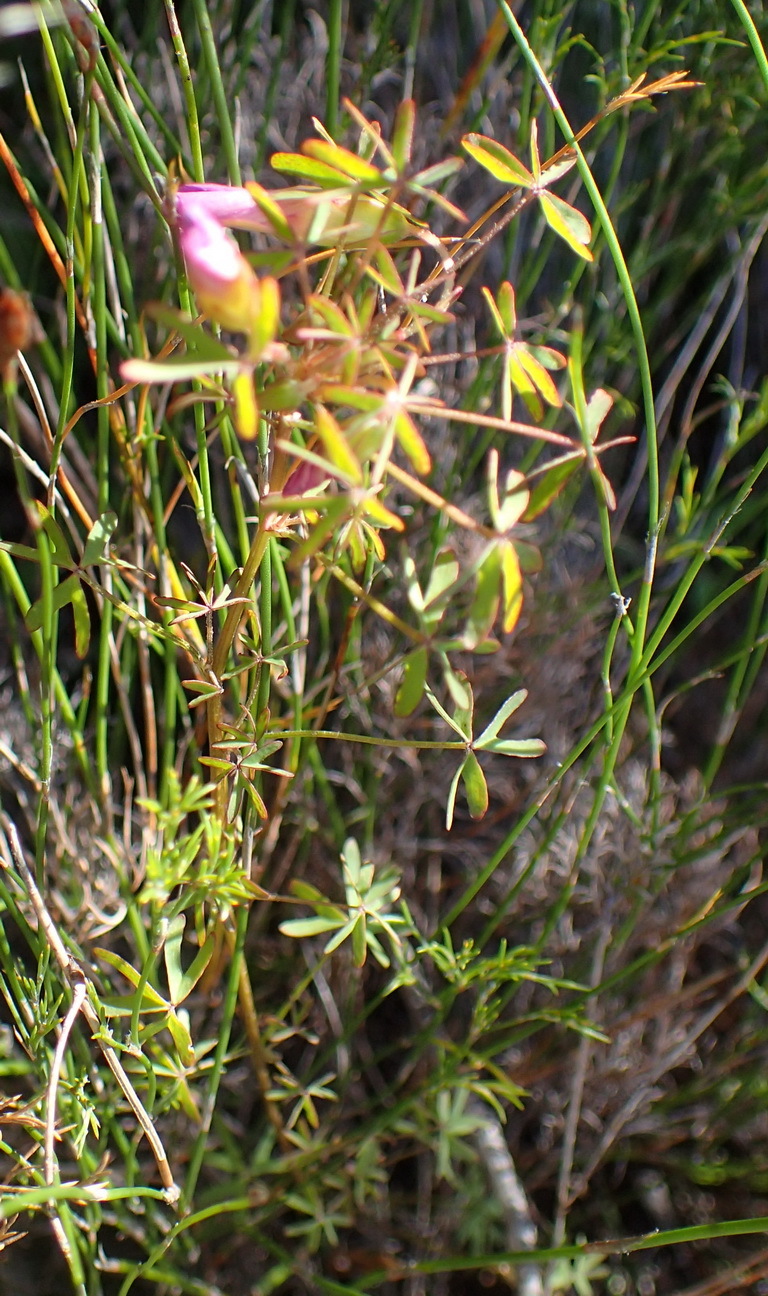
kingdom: Plantae
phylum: Tracheophyta
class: Magnoliopsida
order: Oxalidales
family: Oxalidaceae
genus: Oxalis
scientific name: Oxalis heterophylla
